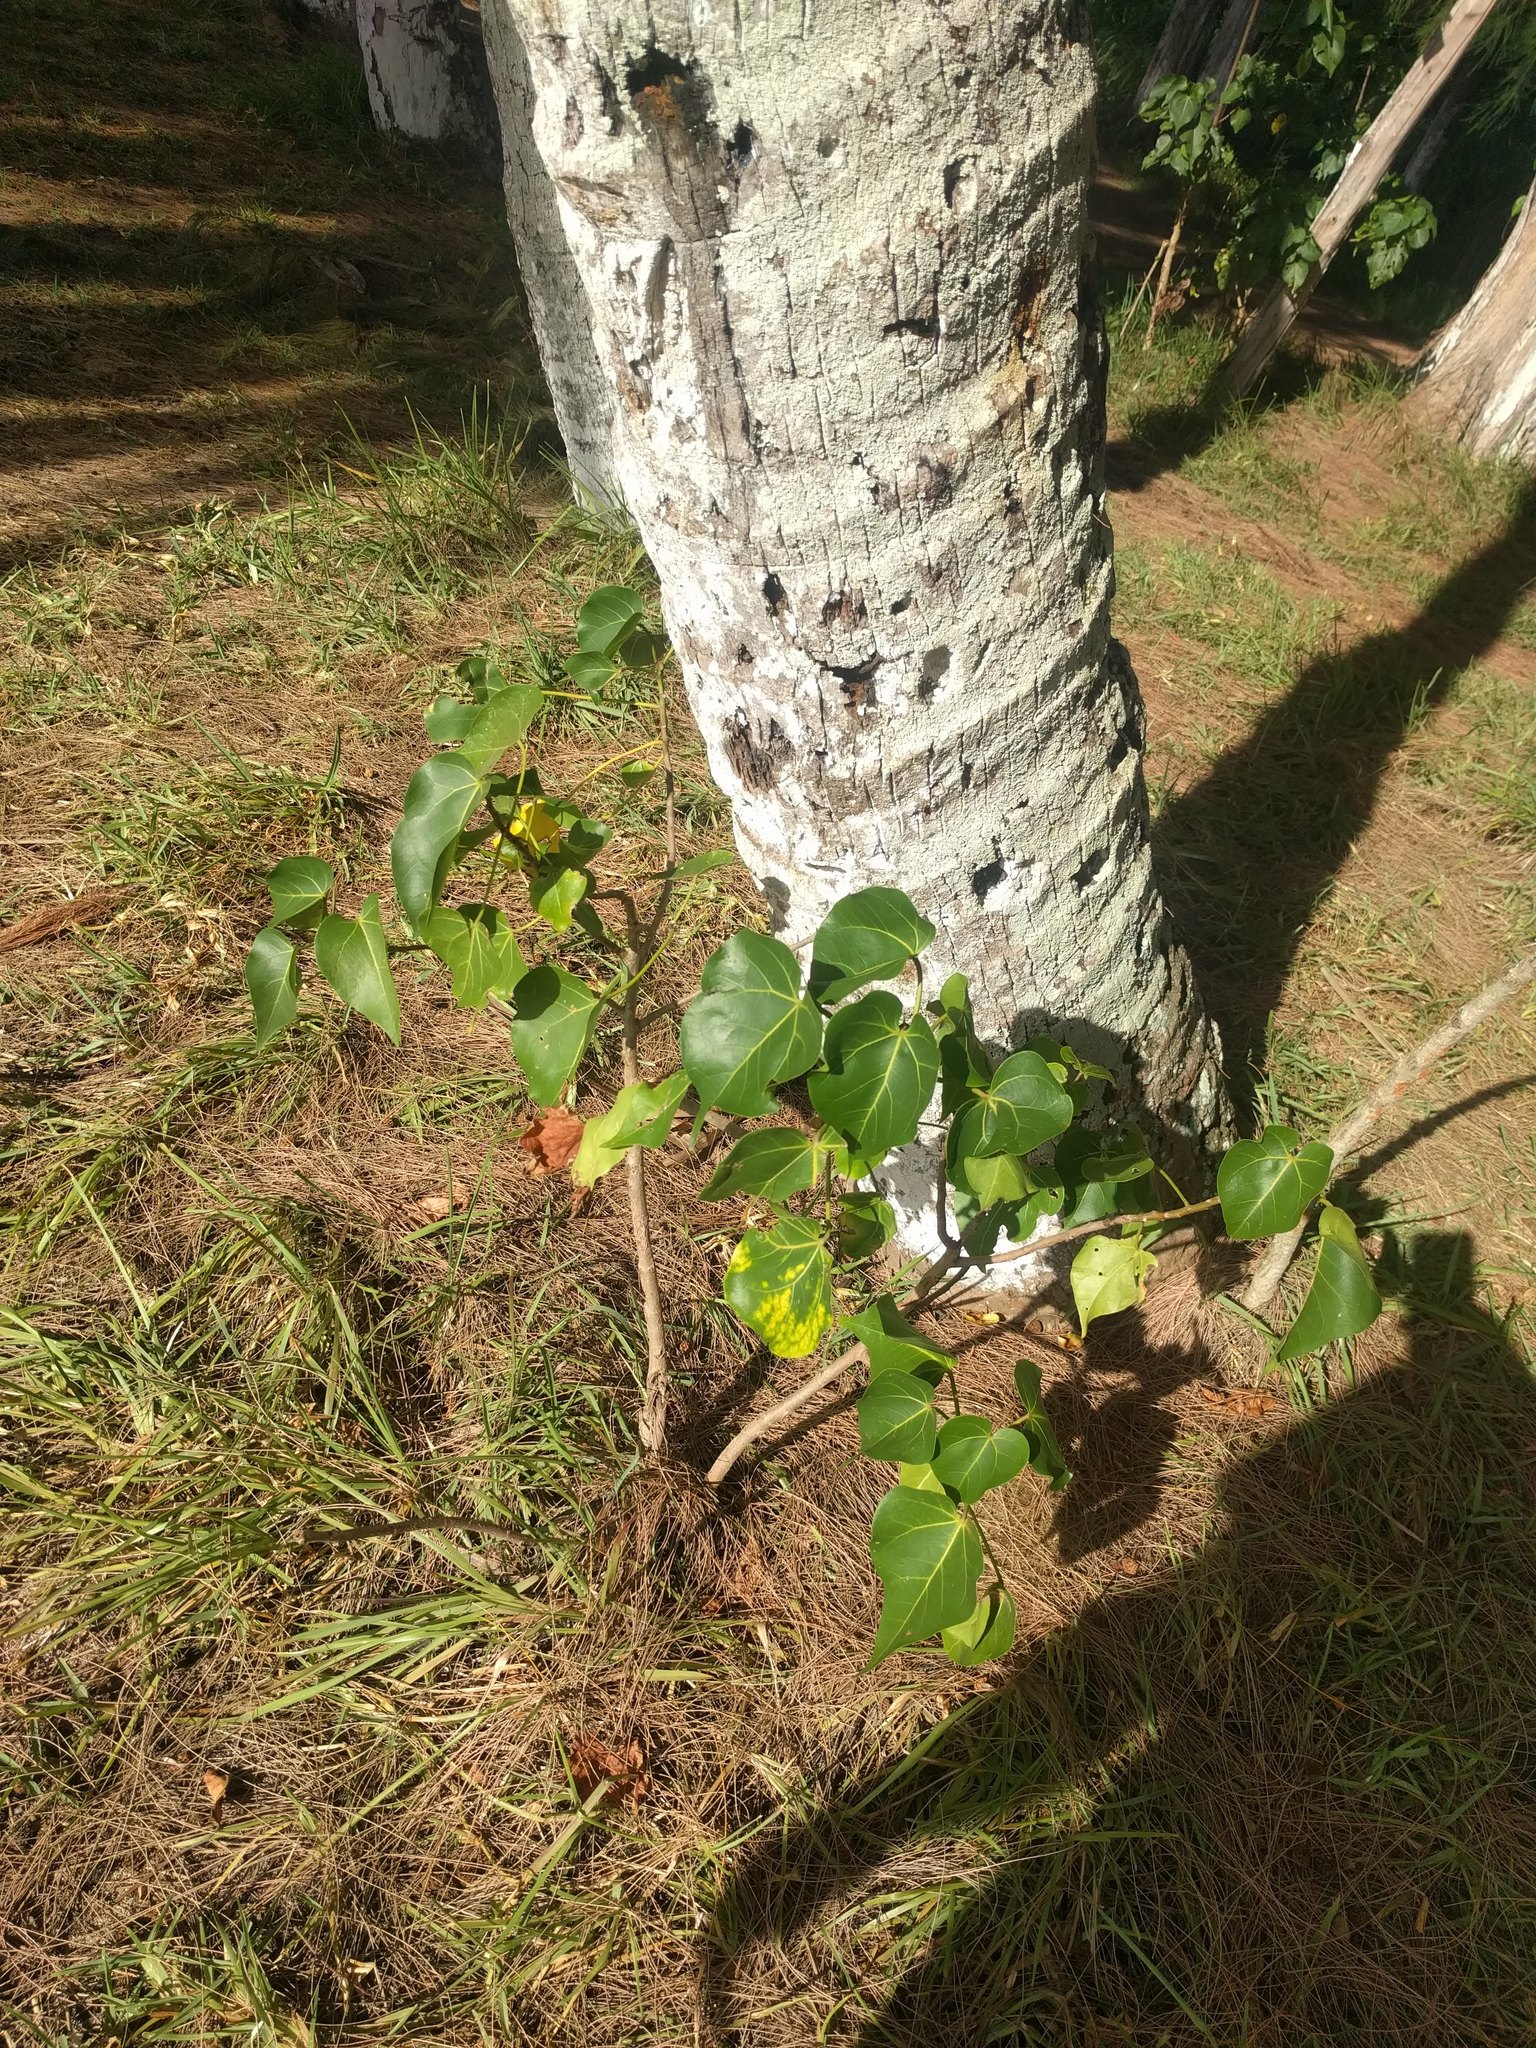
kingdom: Plantae
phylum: Tracheophyta
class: Magnoliopsida
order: Malvales
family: Malvaceae
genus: Thespesia
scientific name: Thespesia populnea
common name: Seaside mahoe
